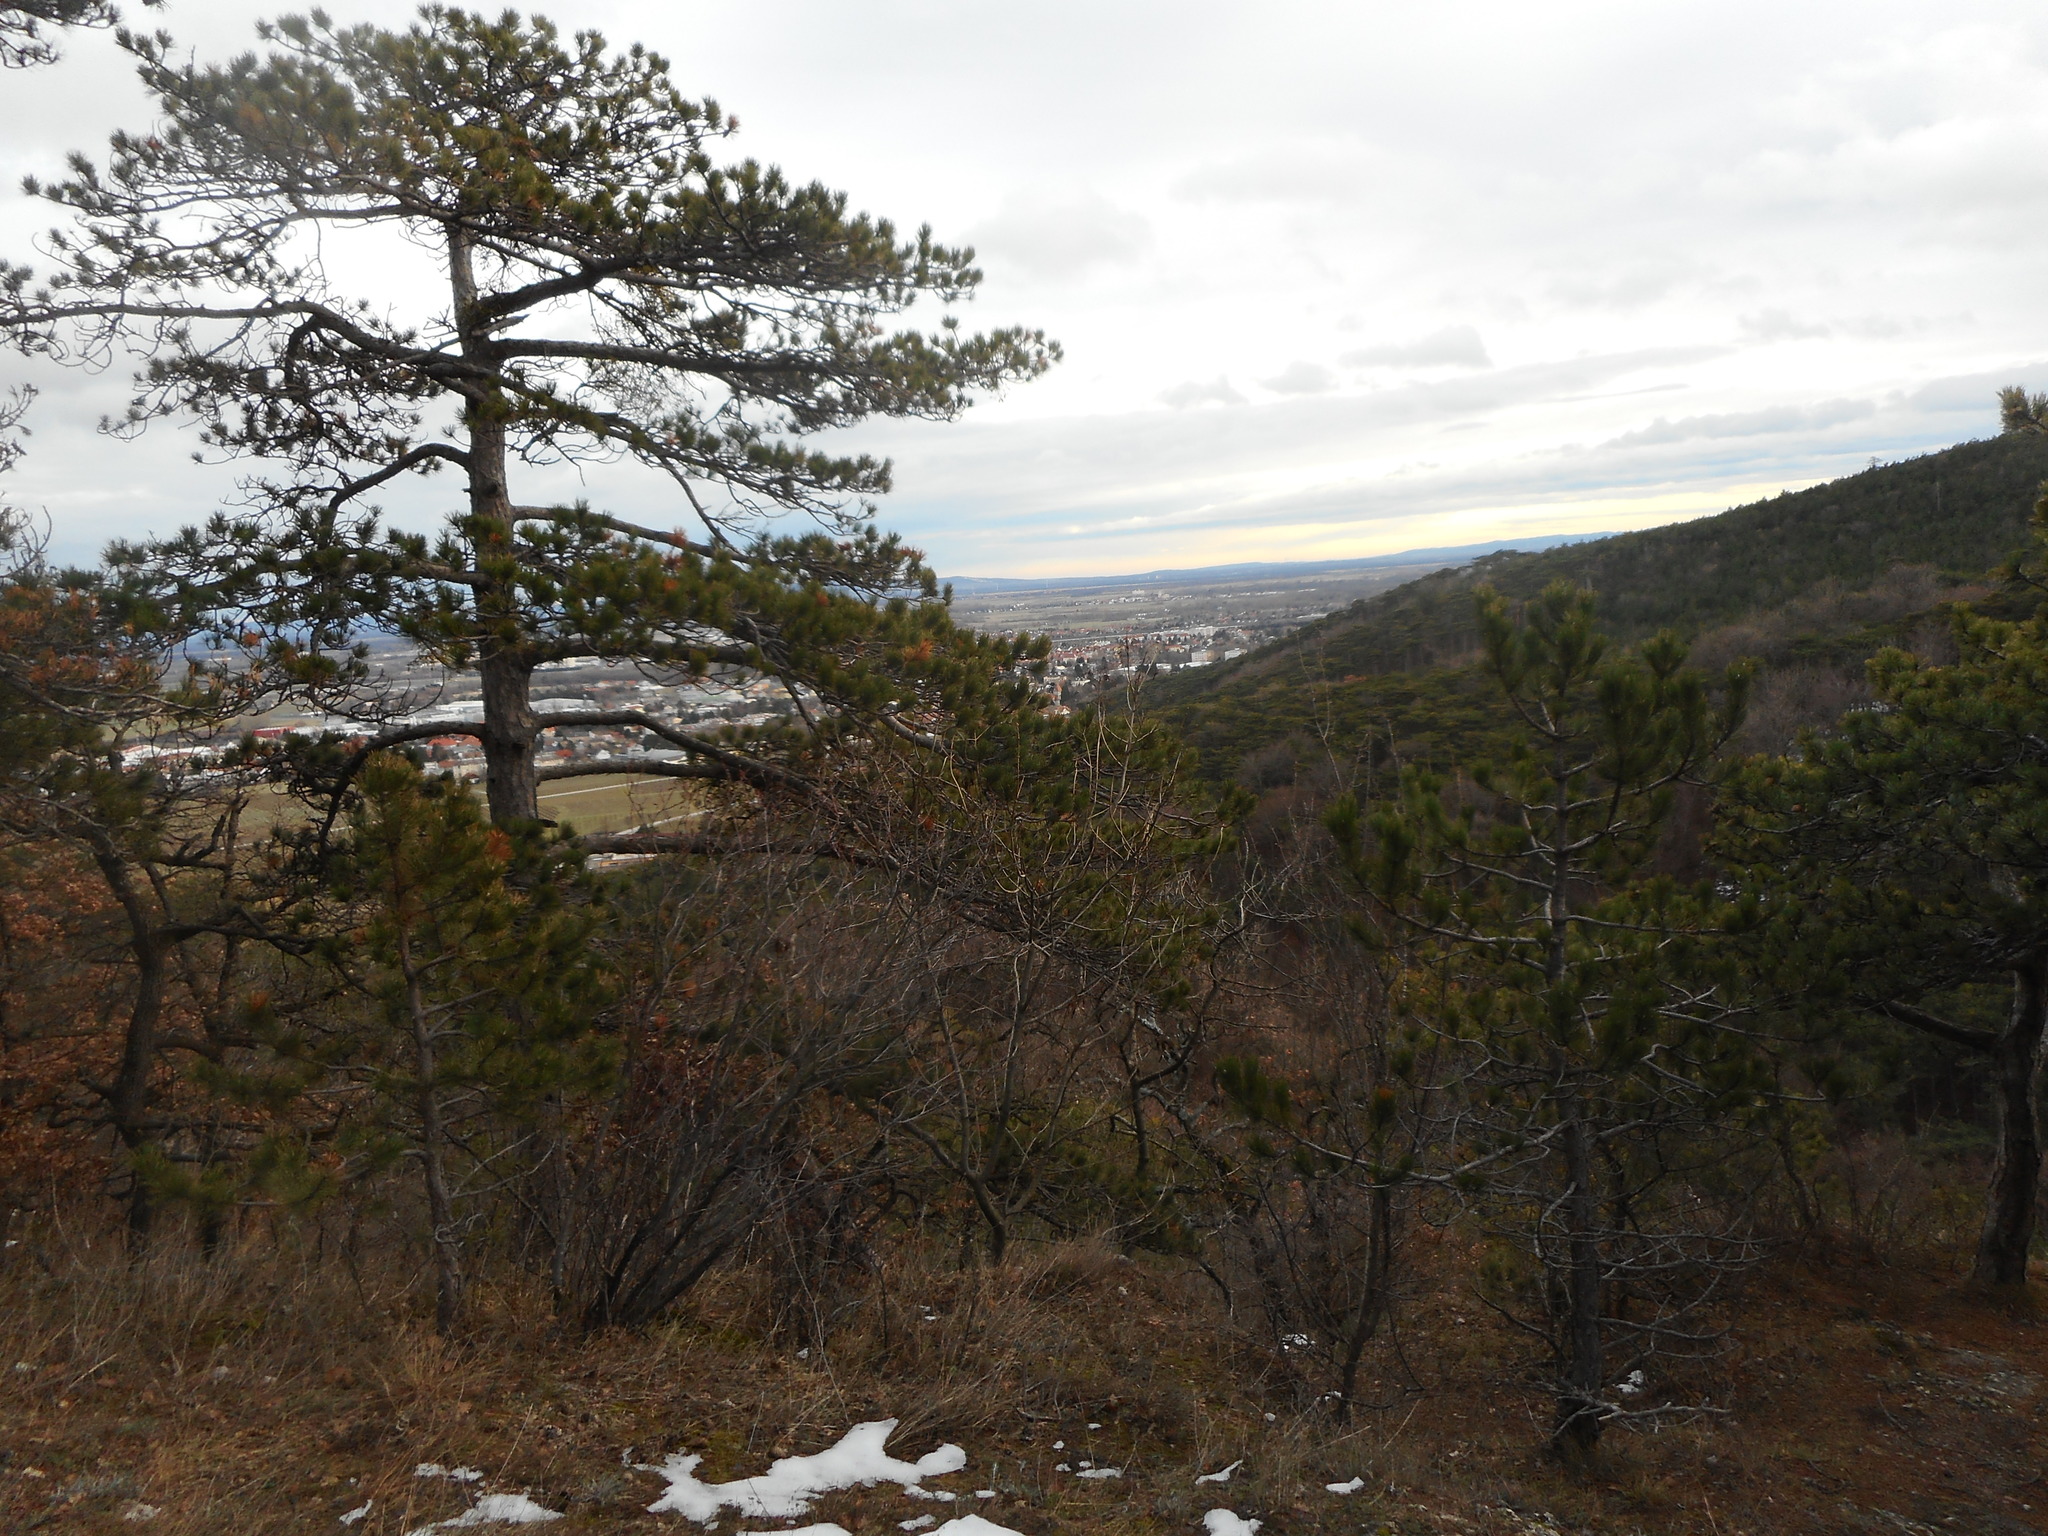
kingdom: Plantae
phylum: Tracheophyta
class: Pinopsida
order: Pinales
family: Pinaceae
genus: Pinus
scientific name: Pinus nigra
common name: Austrian pine
